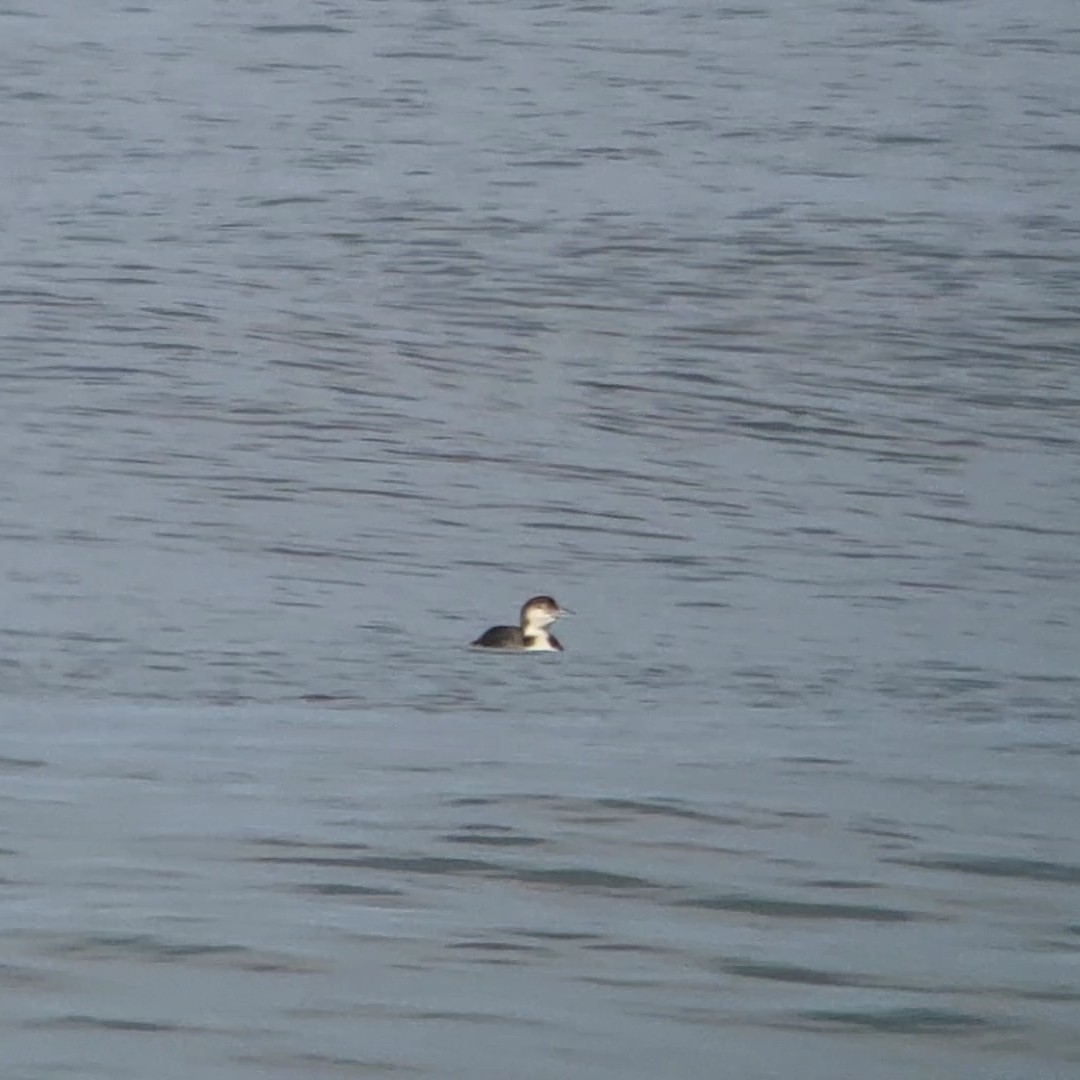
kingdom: Animalia
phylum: Chordata
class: Aves
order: Gaviiformes
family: Gaviidae
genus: Gavia
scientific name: Gavia immer
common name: Common loon
